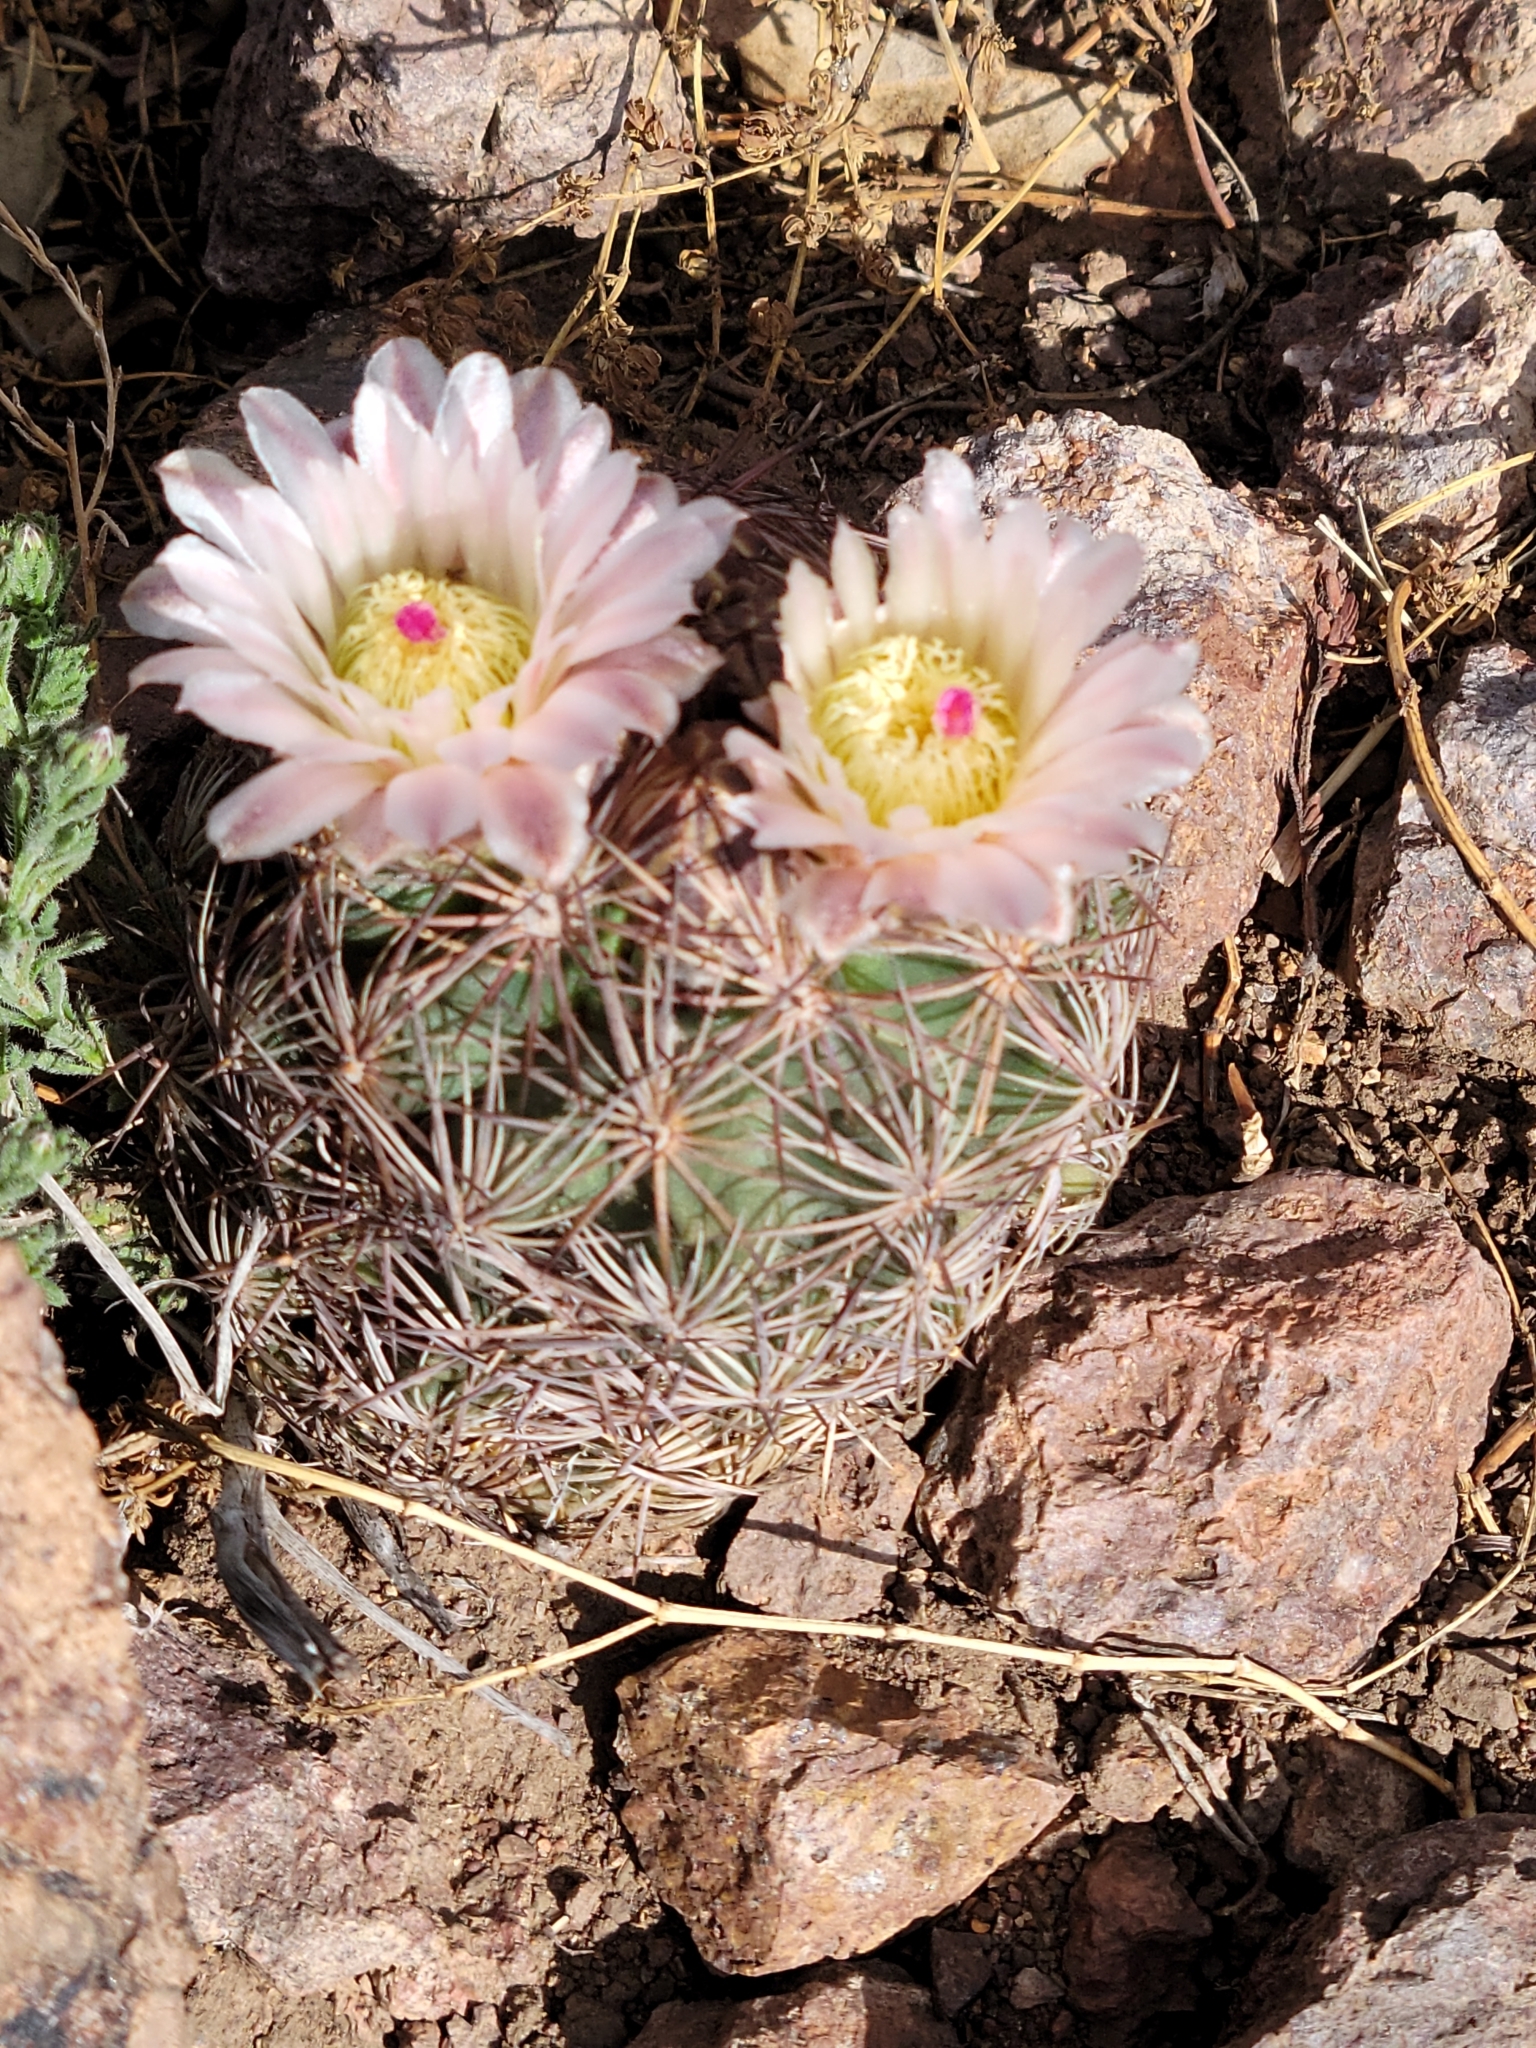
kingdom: Plantae
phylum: Tracheophyta
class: Magnoliopsida
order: Caryophyllales
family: Cactaceae
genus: Sclerocactus
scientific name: Sclerocactus intertextus
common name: White fish-hook cactus
